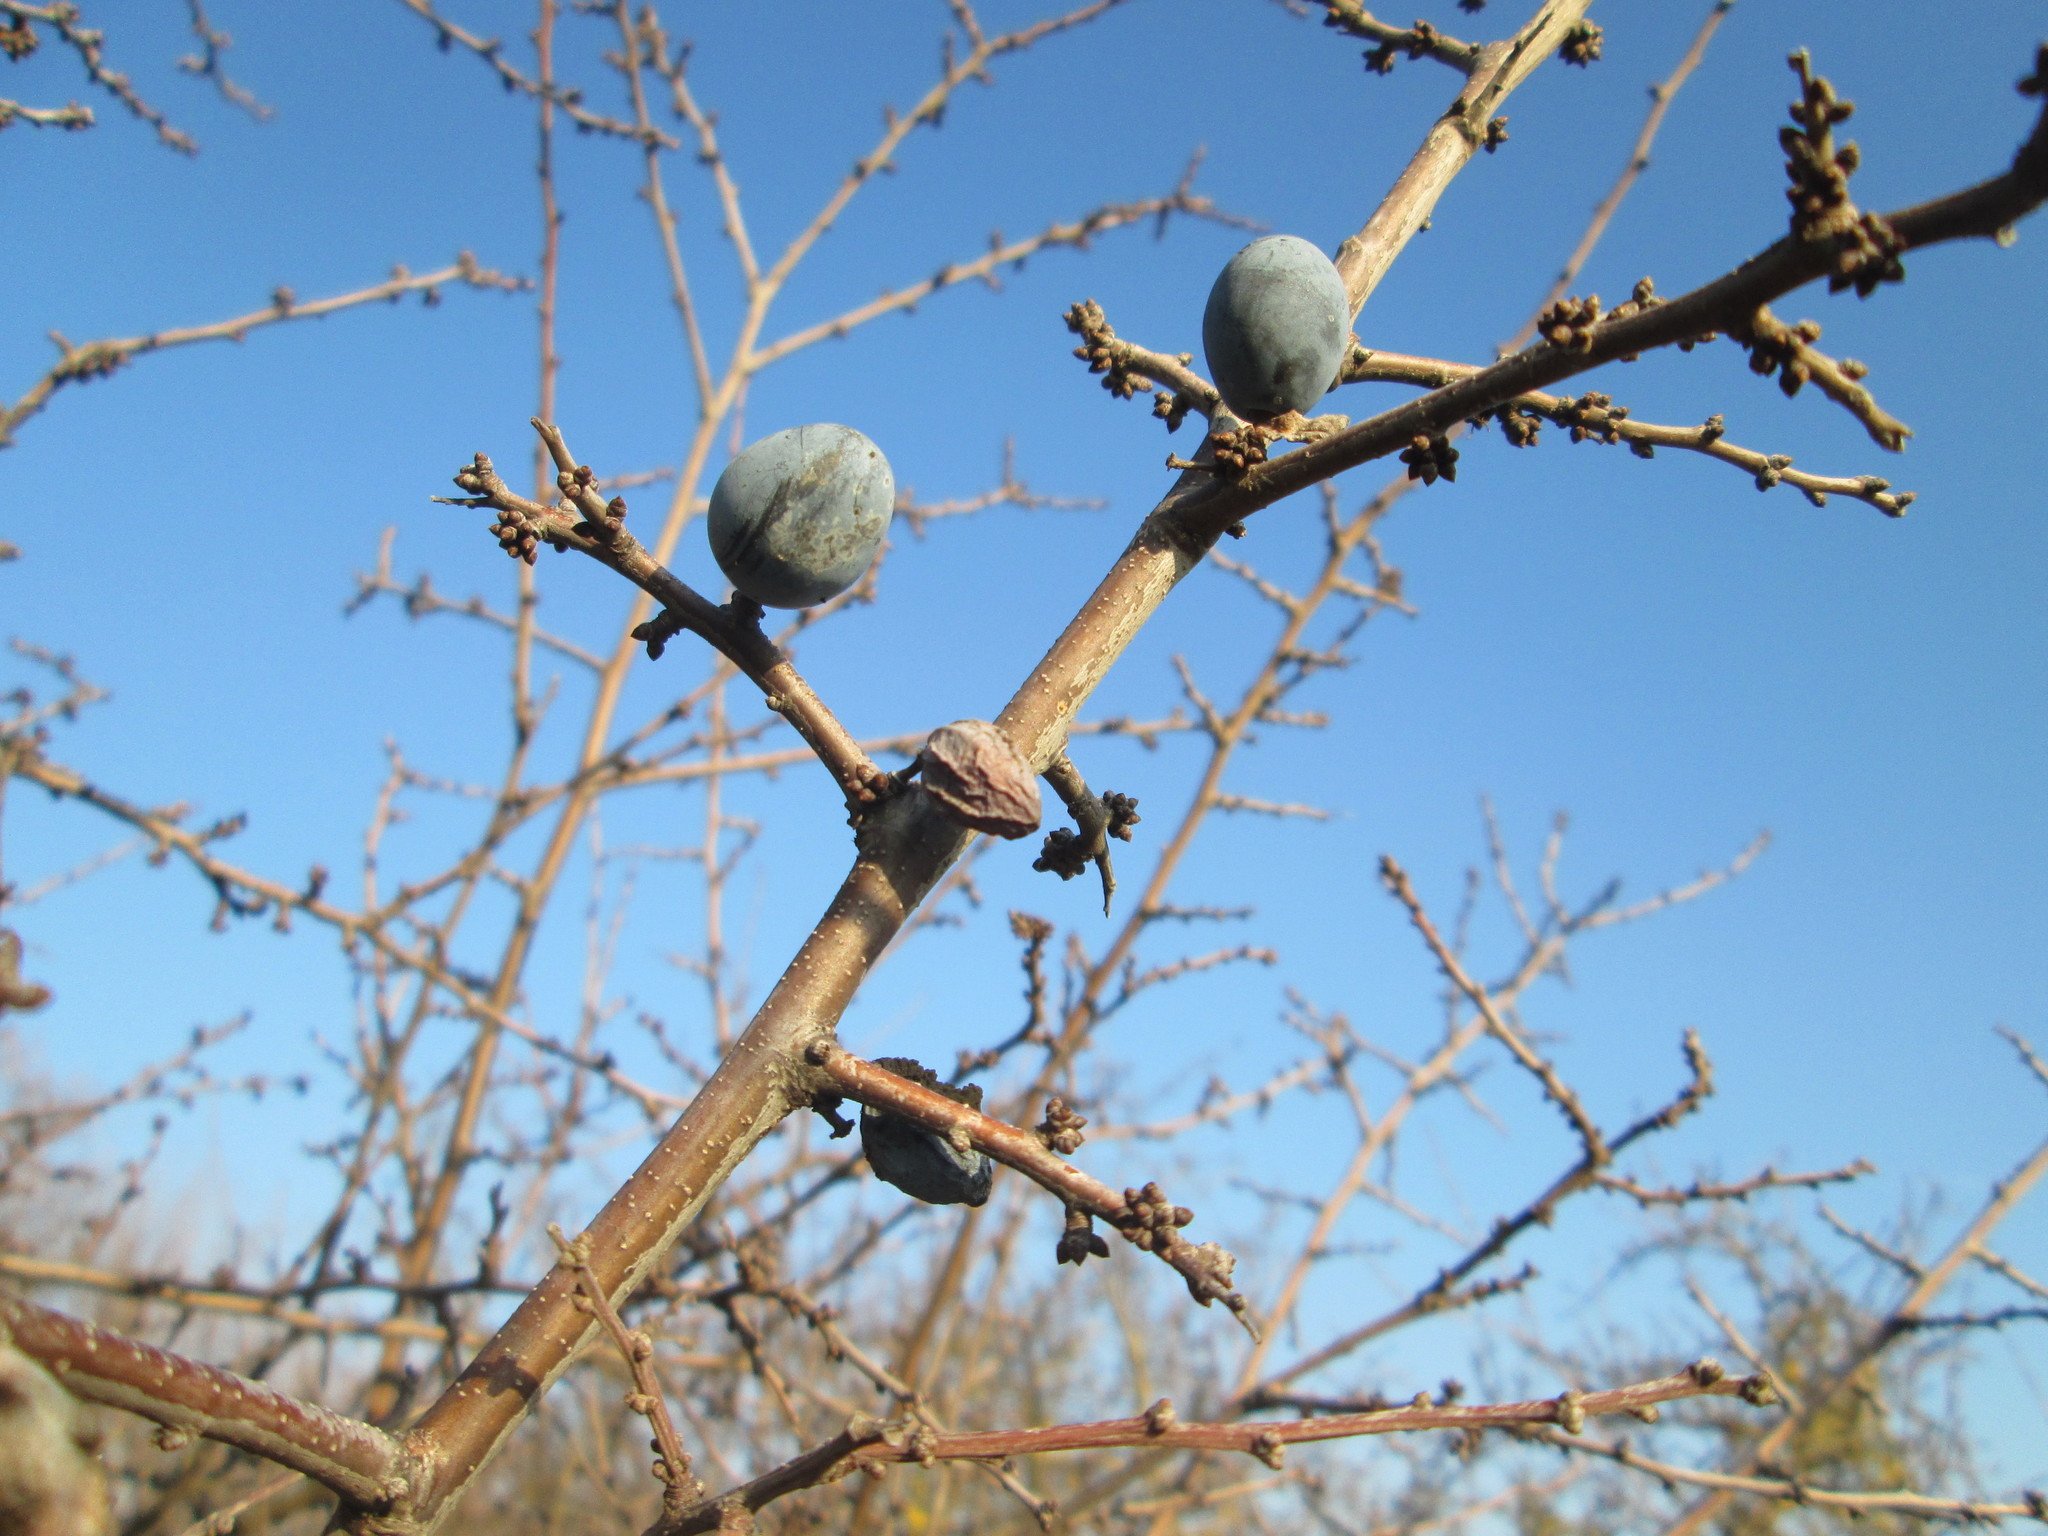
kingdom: Plantae
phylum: Tracheophyta
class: Magnoliopsida
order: Rosales
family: Rosaceae
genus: Prunus
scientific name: Prunus spinosa
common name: Blackthorn
